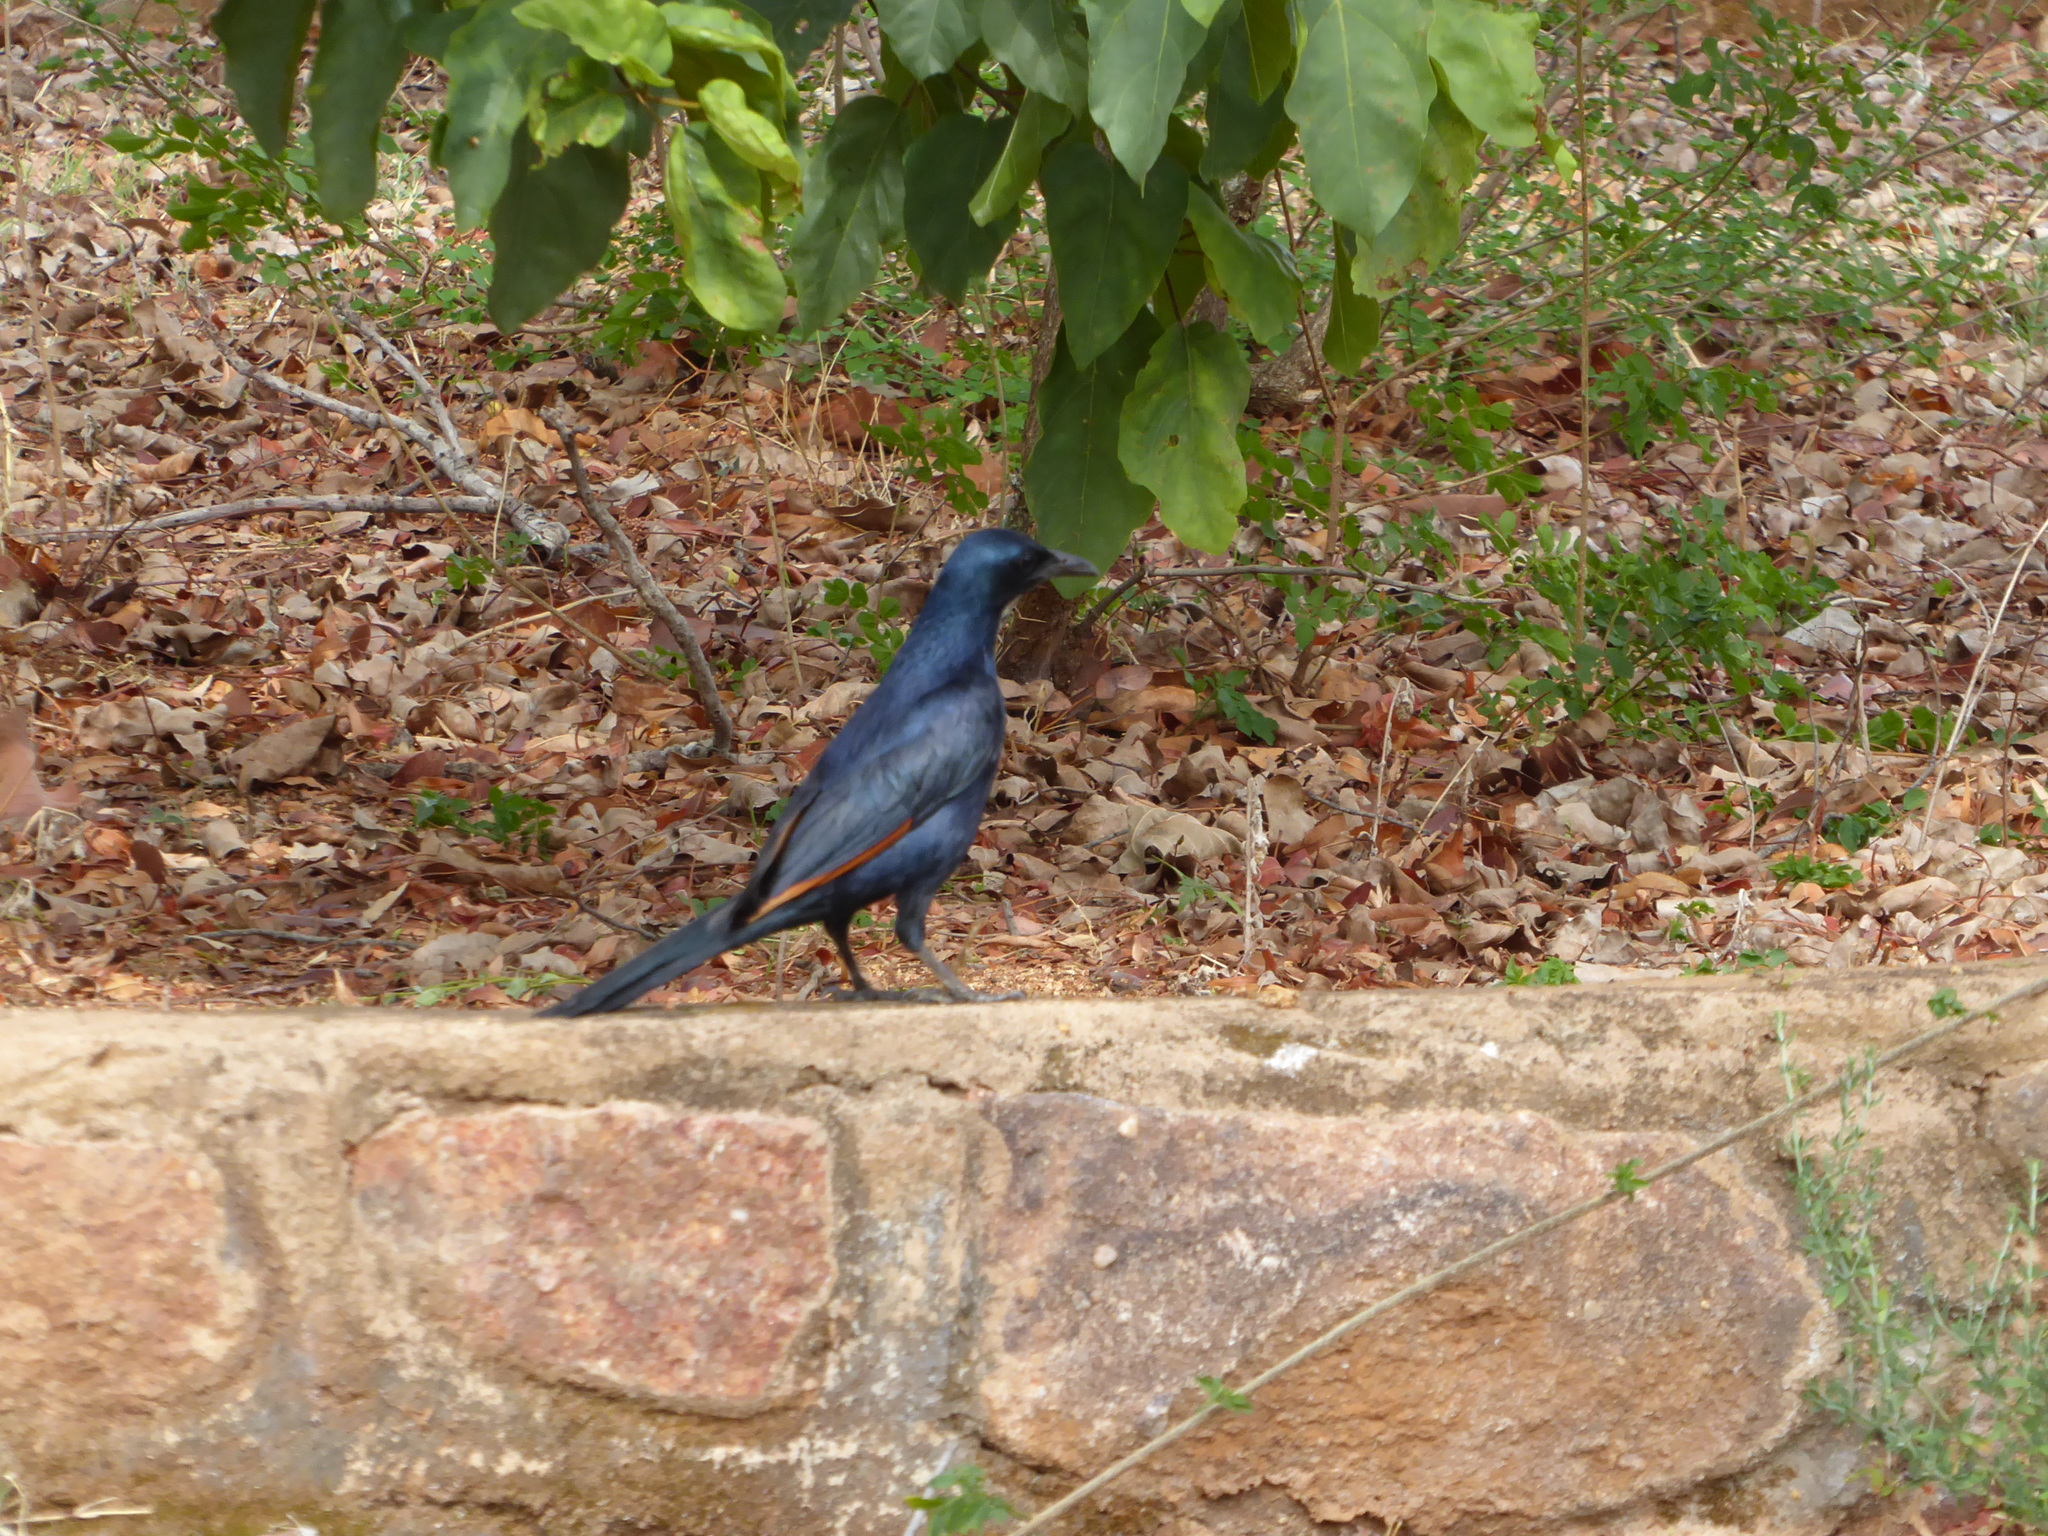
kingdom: Animalia
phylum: Chordata
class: Aves
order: Passeriformes
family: Sturnidae
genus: Onychognathus
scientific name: Onychognathus morio
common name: Red-winged starling
